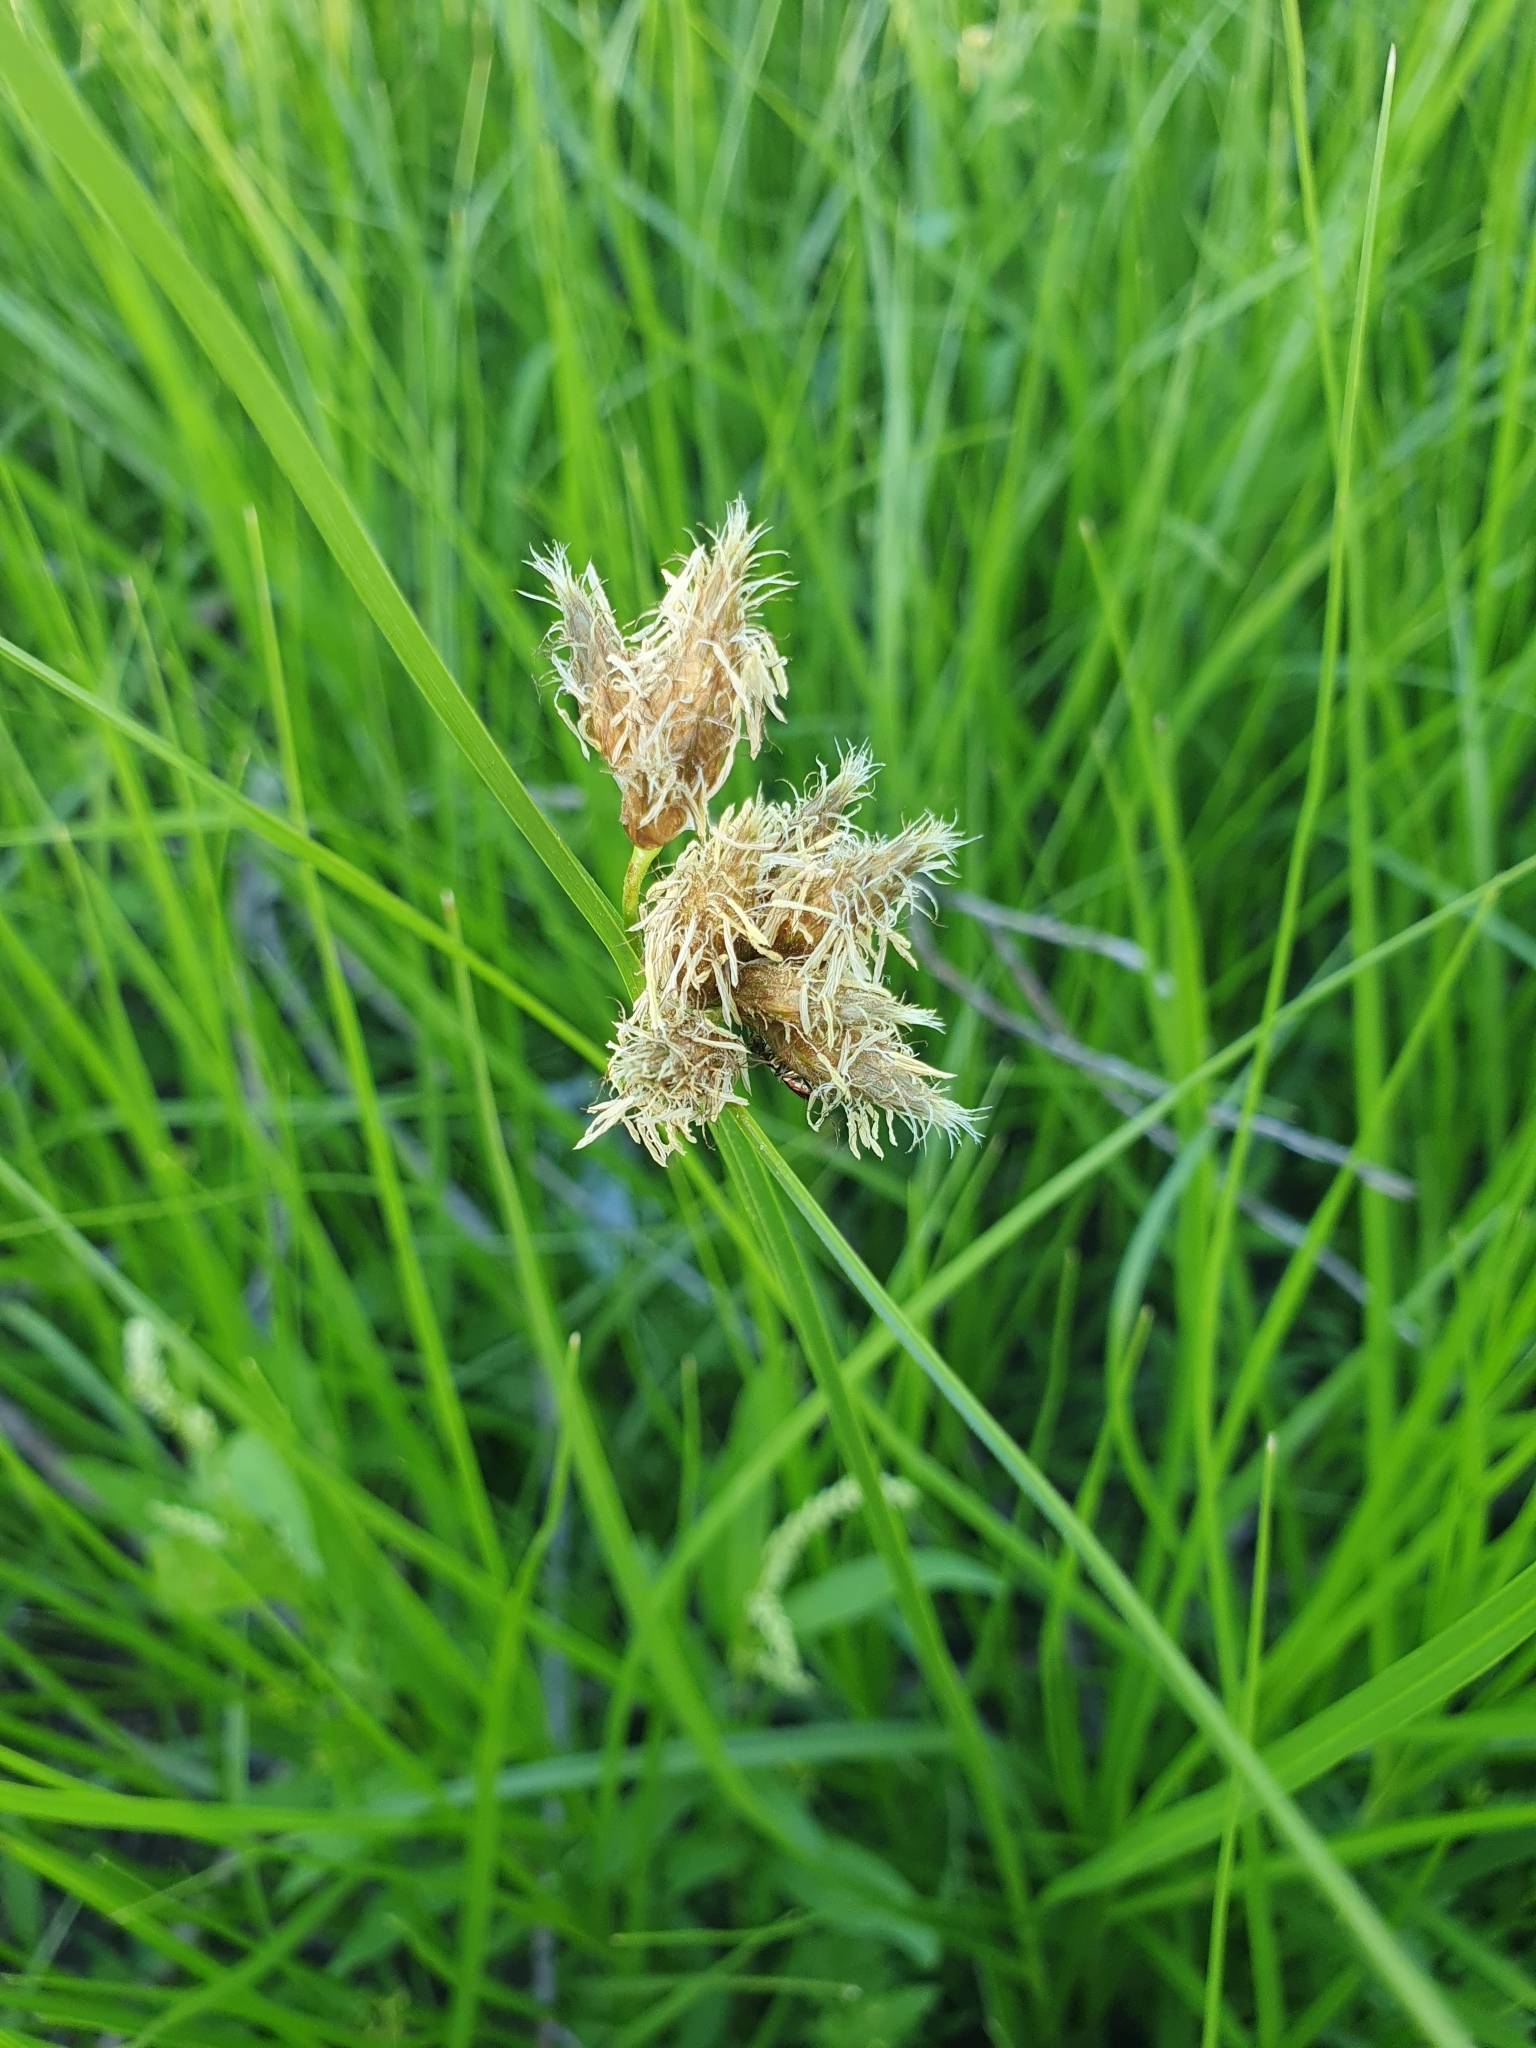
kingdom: Plantae
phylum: Tracheophyta
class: Liliopsida
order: Poales
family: Cyperaceae
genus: Bolboschoenus
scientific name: Bolboschoenus maritimus
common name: Sea club-rush
